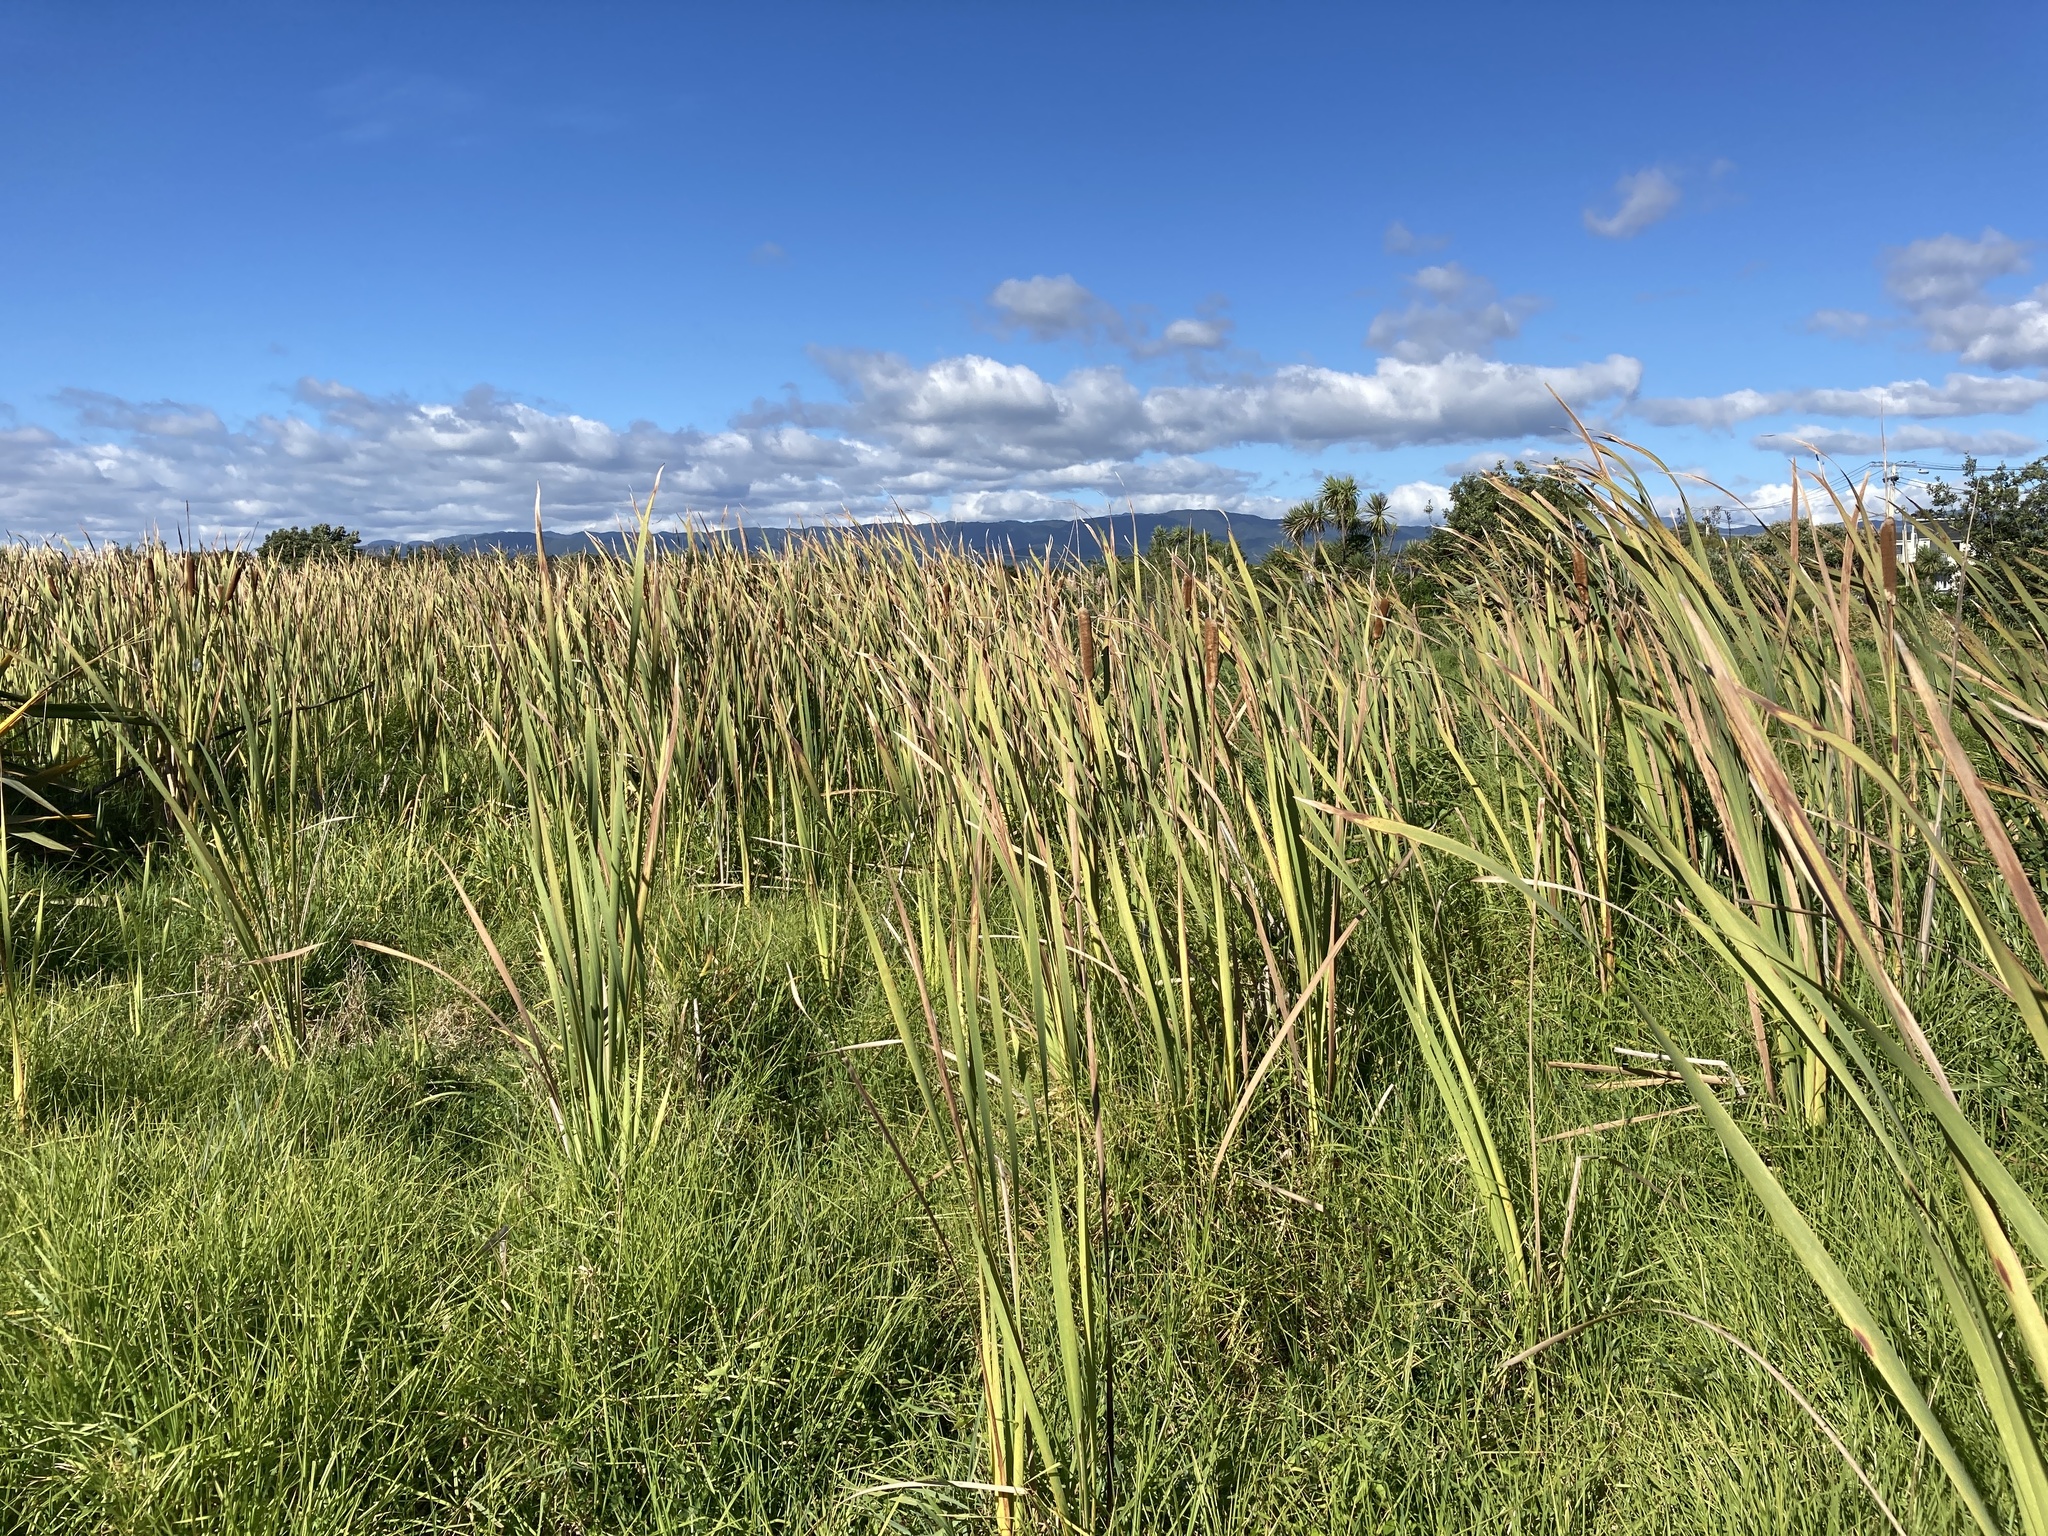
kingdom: Plantae
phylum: Tracheophyta
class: Liliopsida
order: Poales
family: Typhaceae
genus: Typha
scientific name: Typha orientalis
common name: Bullrush
